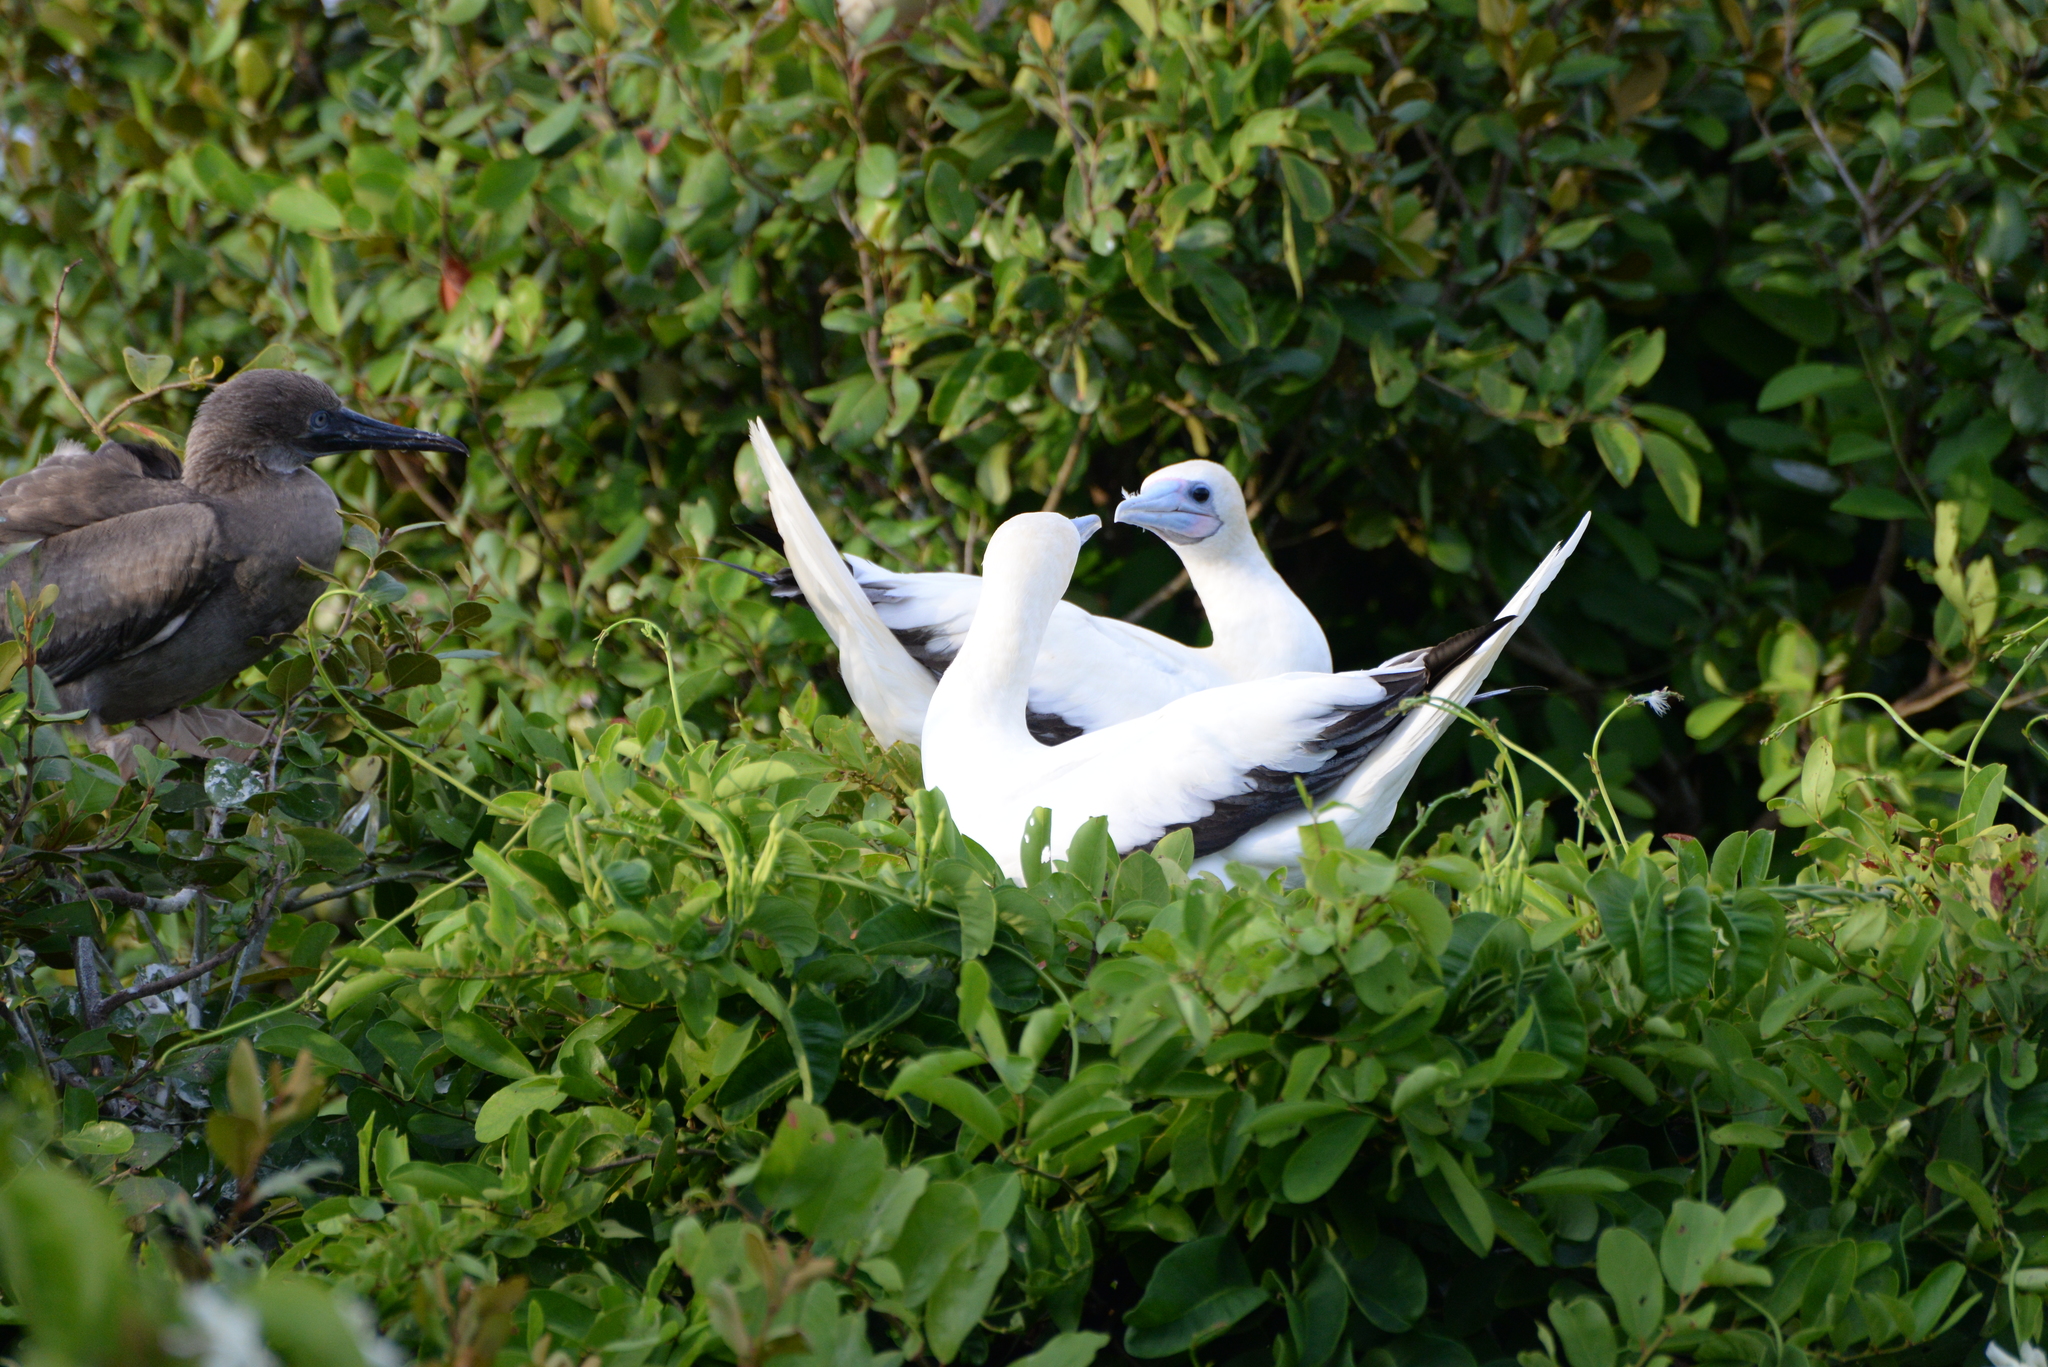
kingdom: Animalia
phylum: Chordata
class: Aves
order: Suliformes
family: Sulidae
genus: Sula
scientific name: Sula sula
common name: Red-footed booby
